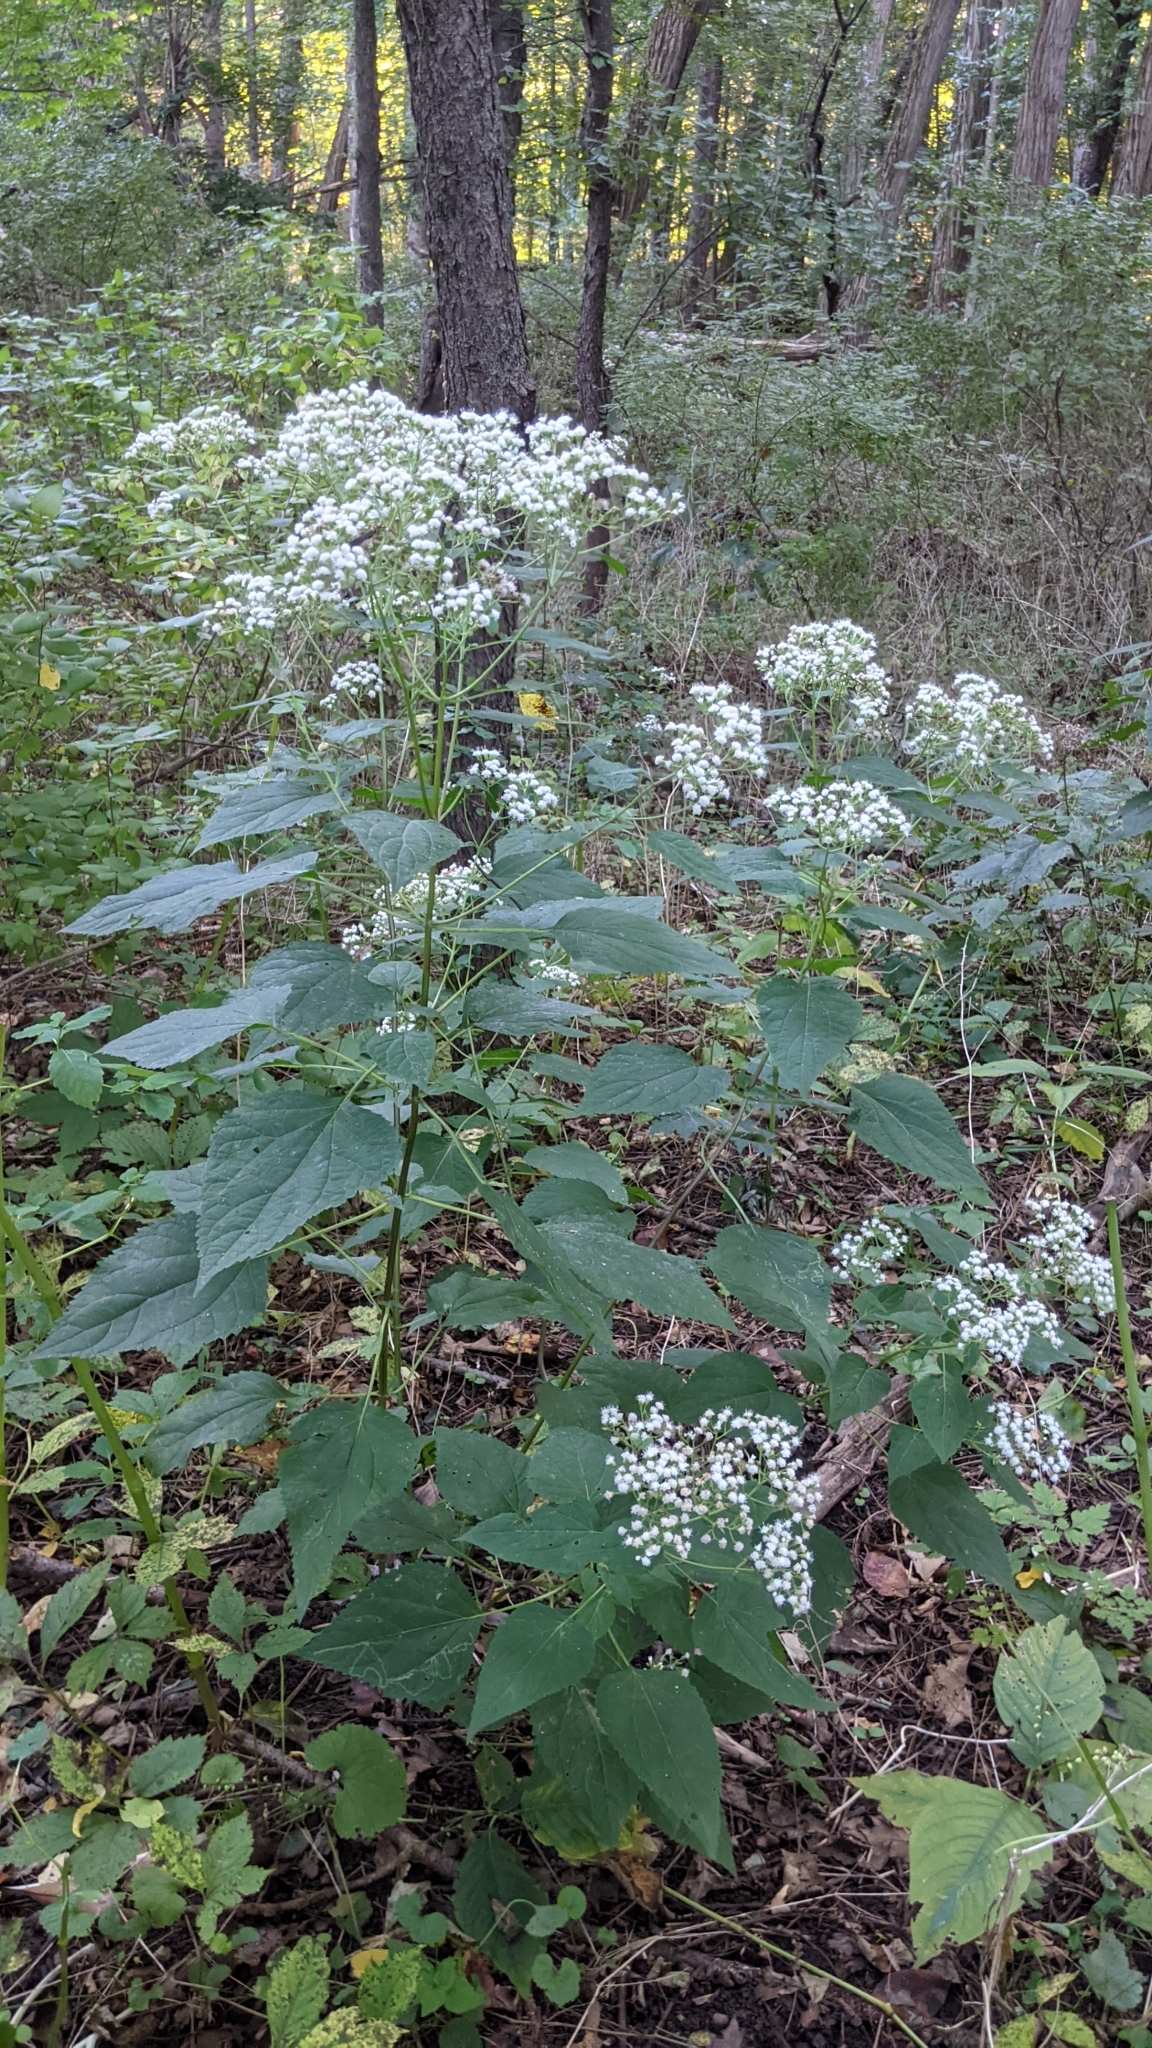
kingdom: Plantae
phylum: Tracheophyta
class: Magnoliopsida
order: Asterales
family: Asteraceae
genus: Ageratina
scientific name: Ageratina altissima
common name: White snakeroot
